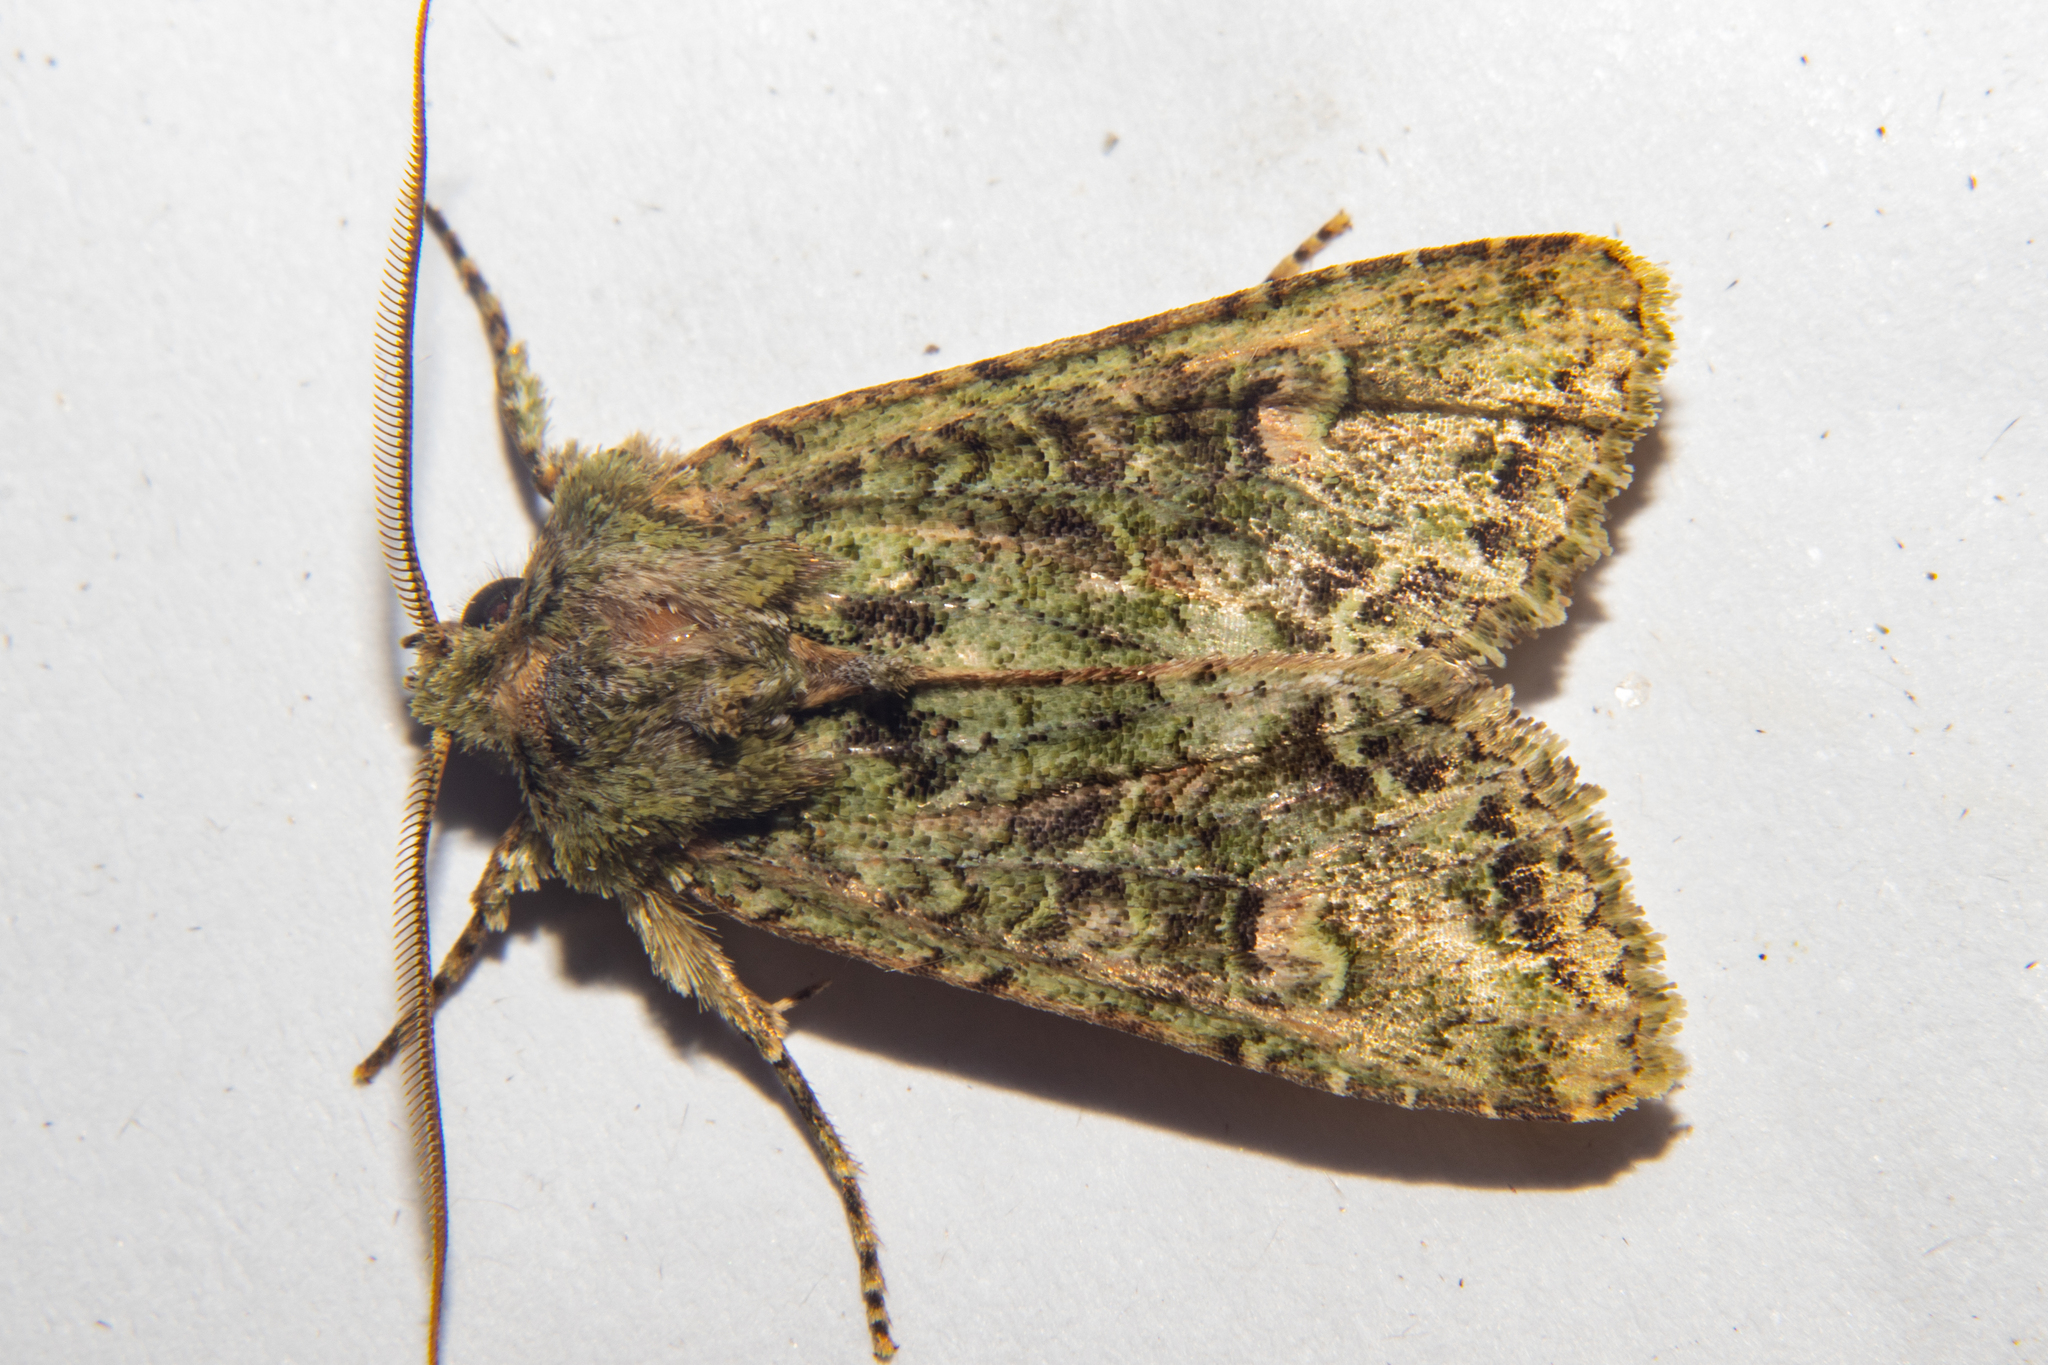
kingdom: Animalia
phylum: Arthropoda
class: Insecta
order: Lepidoptera
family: Noctuidae
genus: Ichneutica
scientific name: Ichneutica
